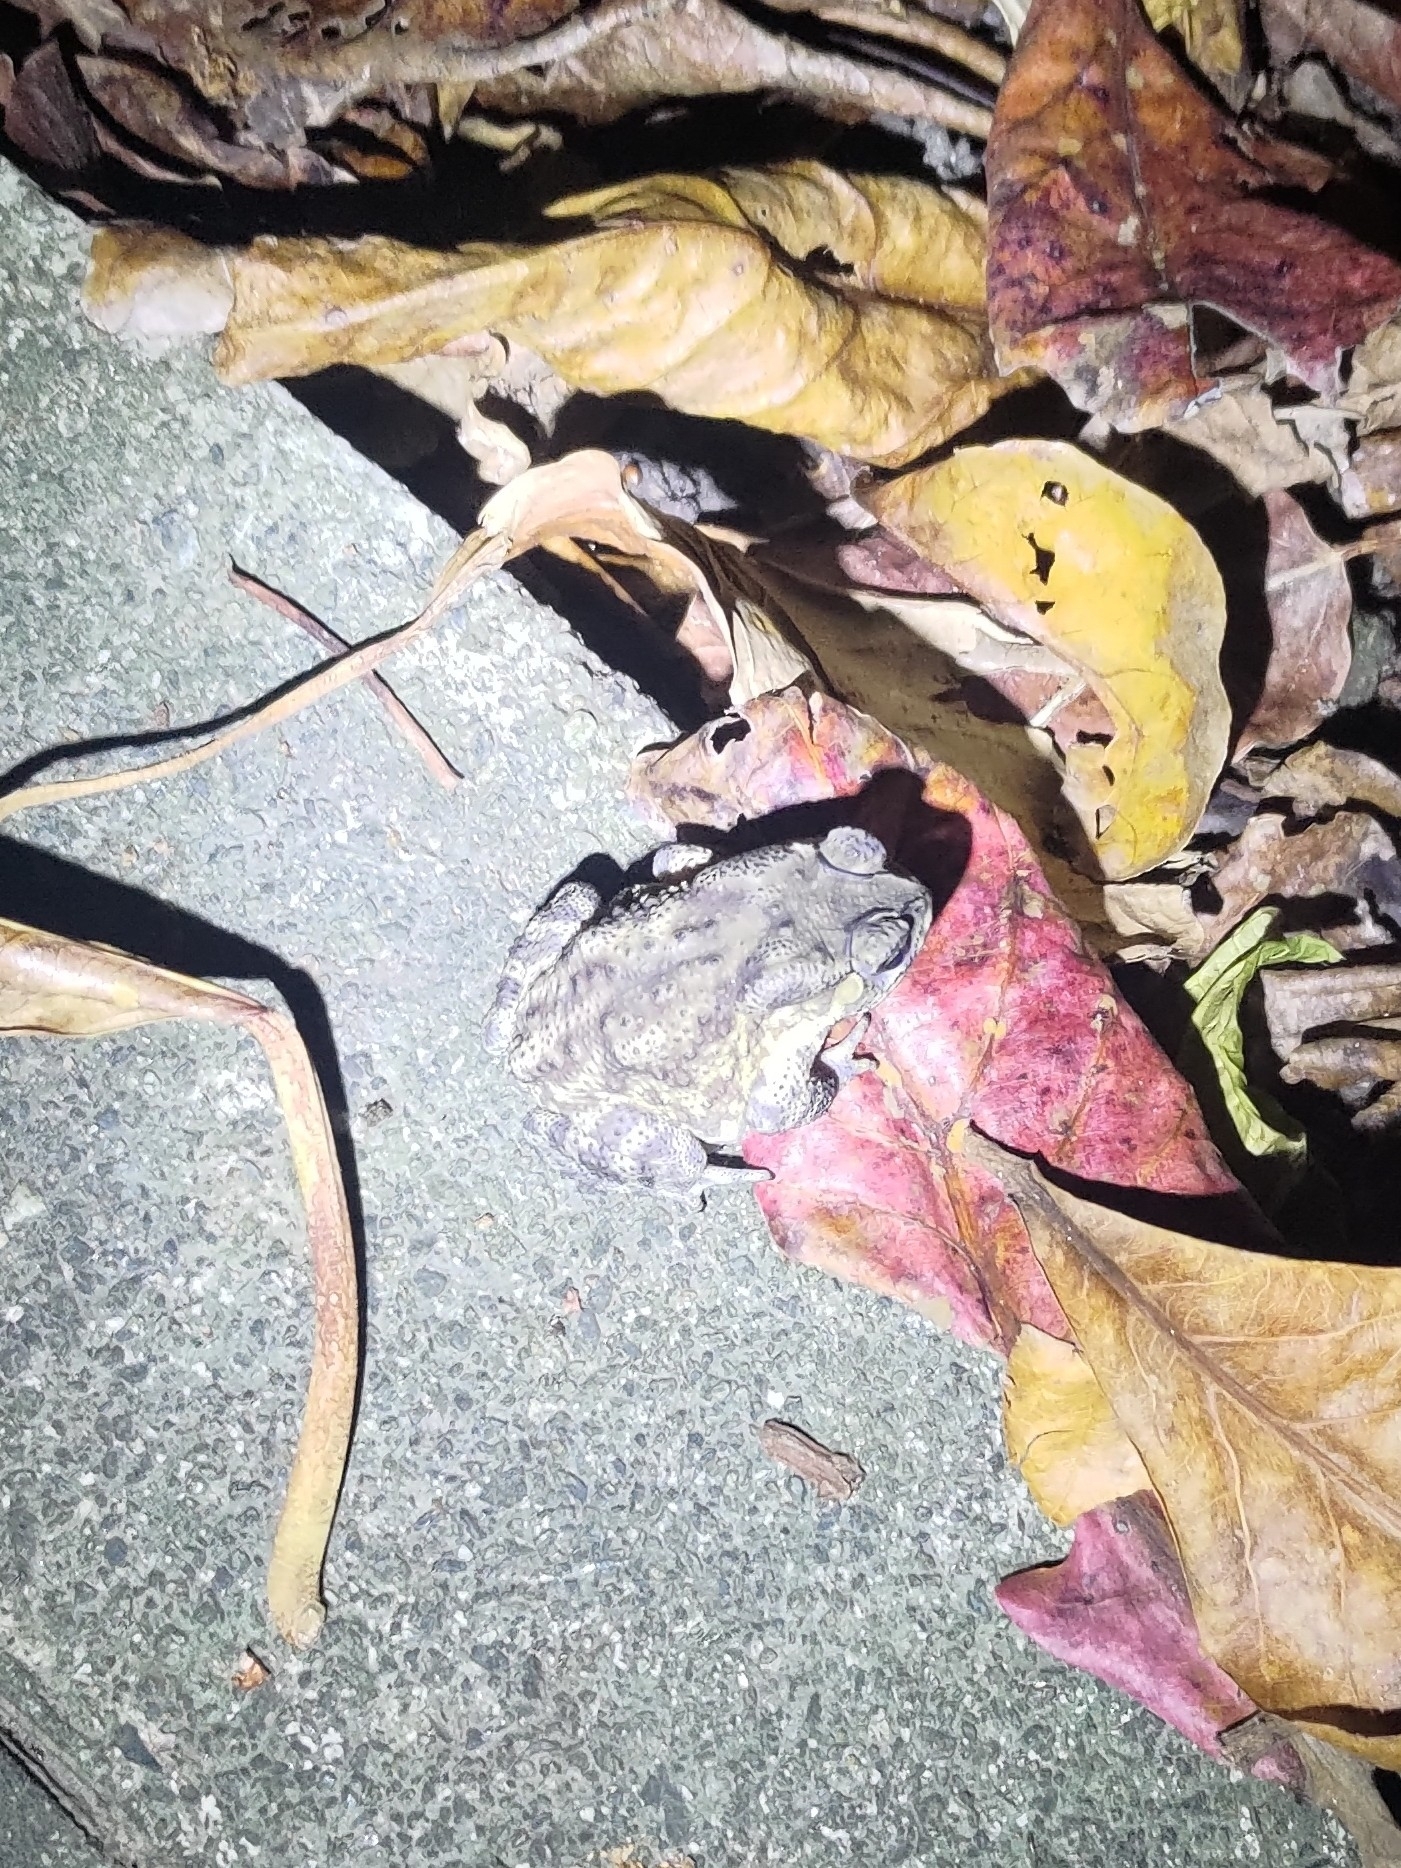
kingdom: Animalia
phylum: Chordata
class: Amphibia
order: Anura
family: Bufonidae
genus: Duttaphrynus
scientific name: Duttaphrynus melanostictus
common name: Common sunda toad
